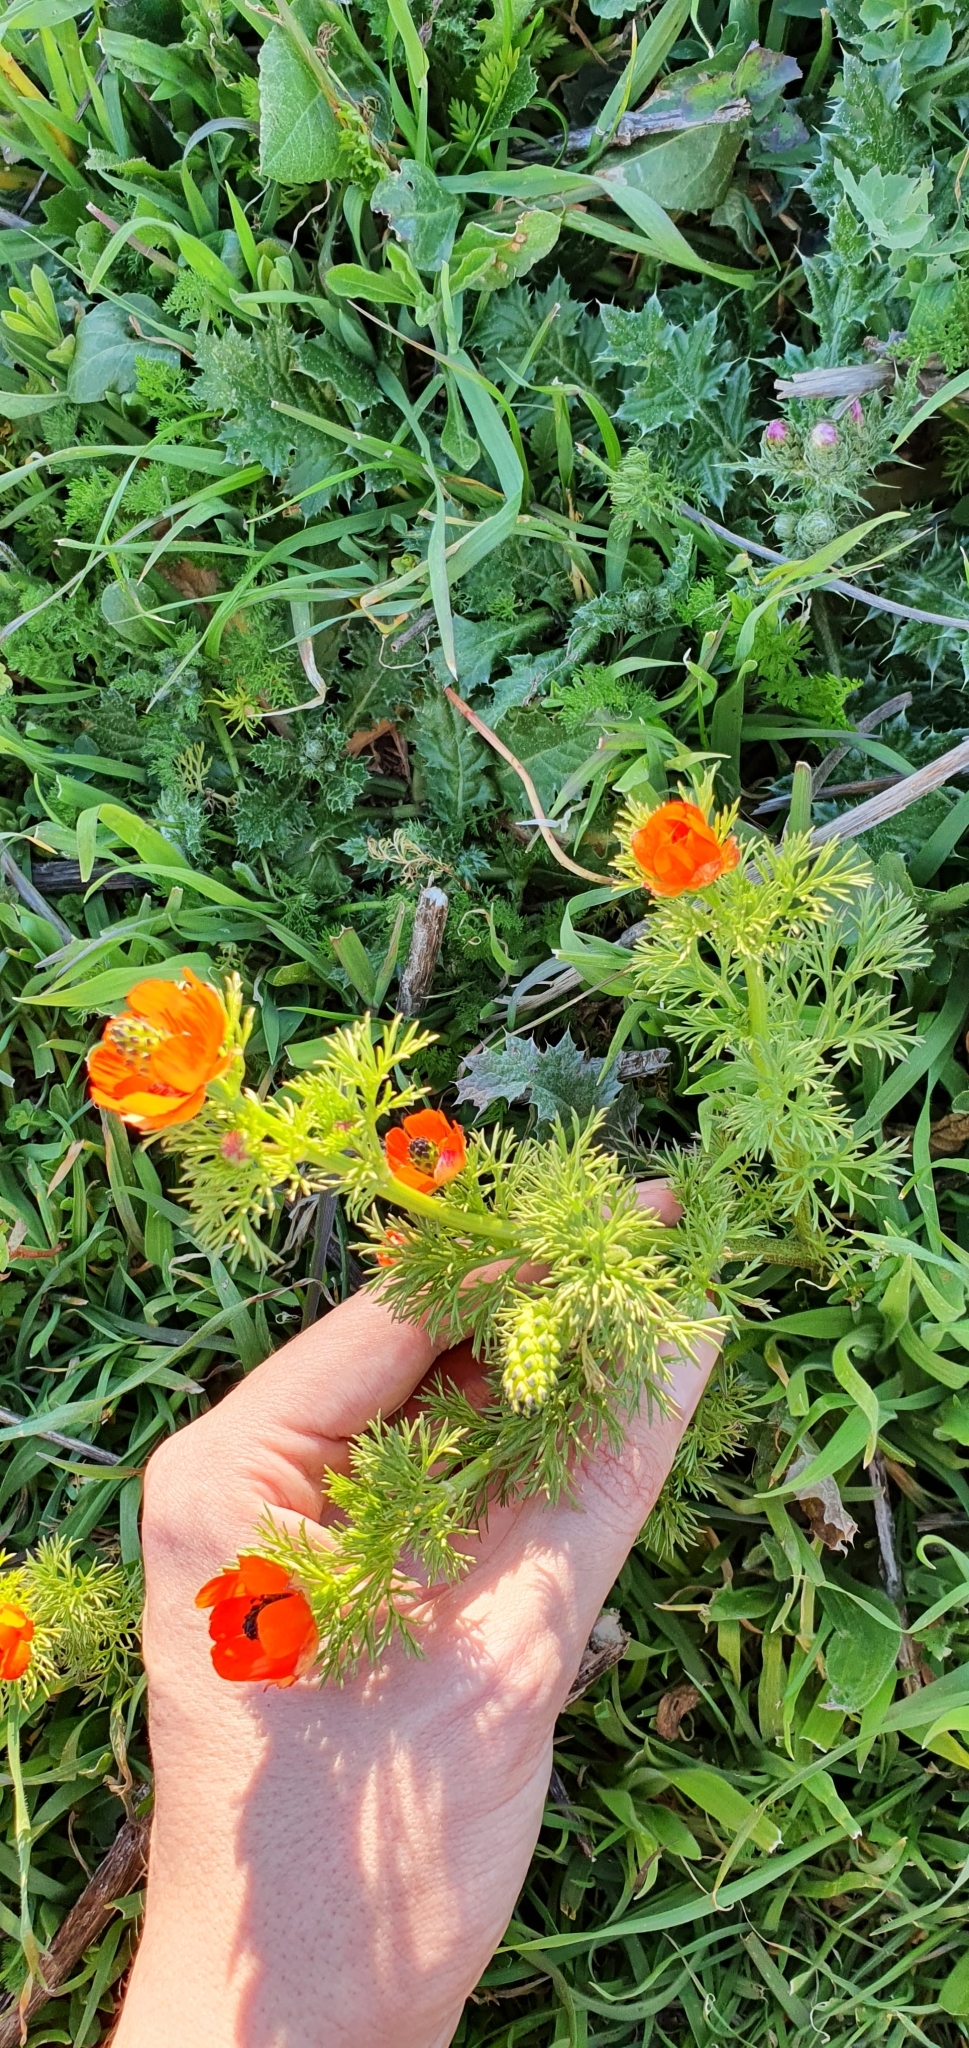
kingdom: Plantae
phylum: Tracheophyta
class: Magnoliopsida
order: Ranunculales
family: Ranunculaceae
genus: Adonis
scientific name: Adonis aestivalis
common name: Summer pheasant's-eye
